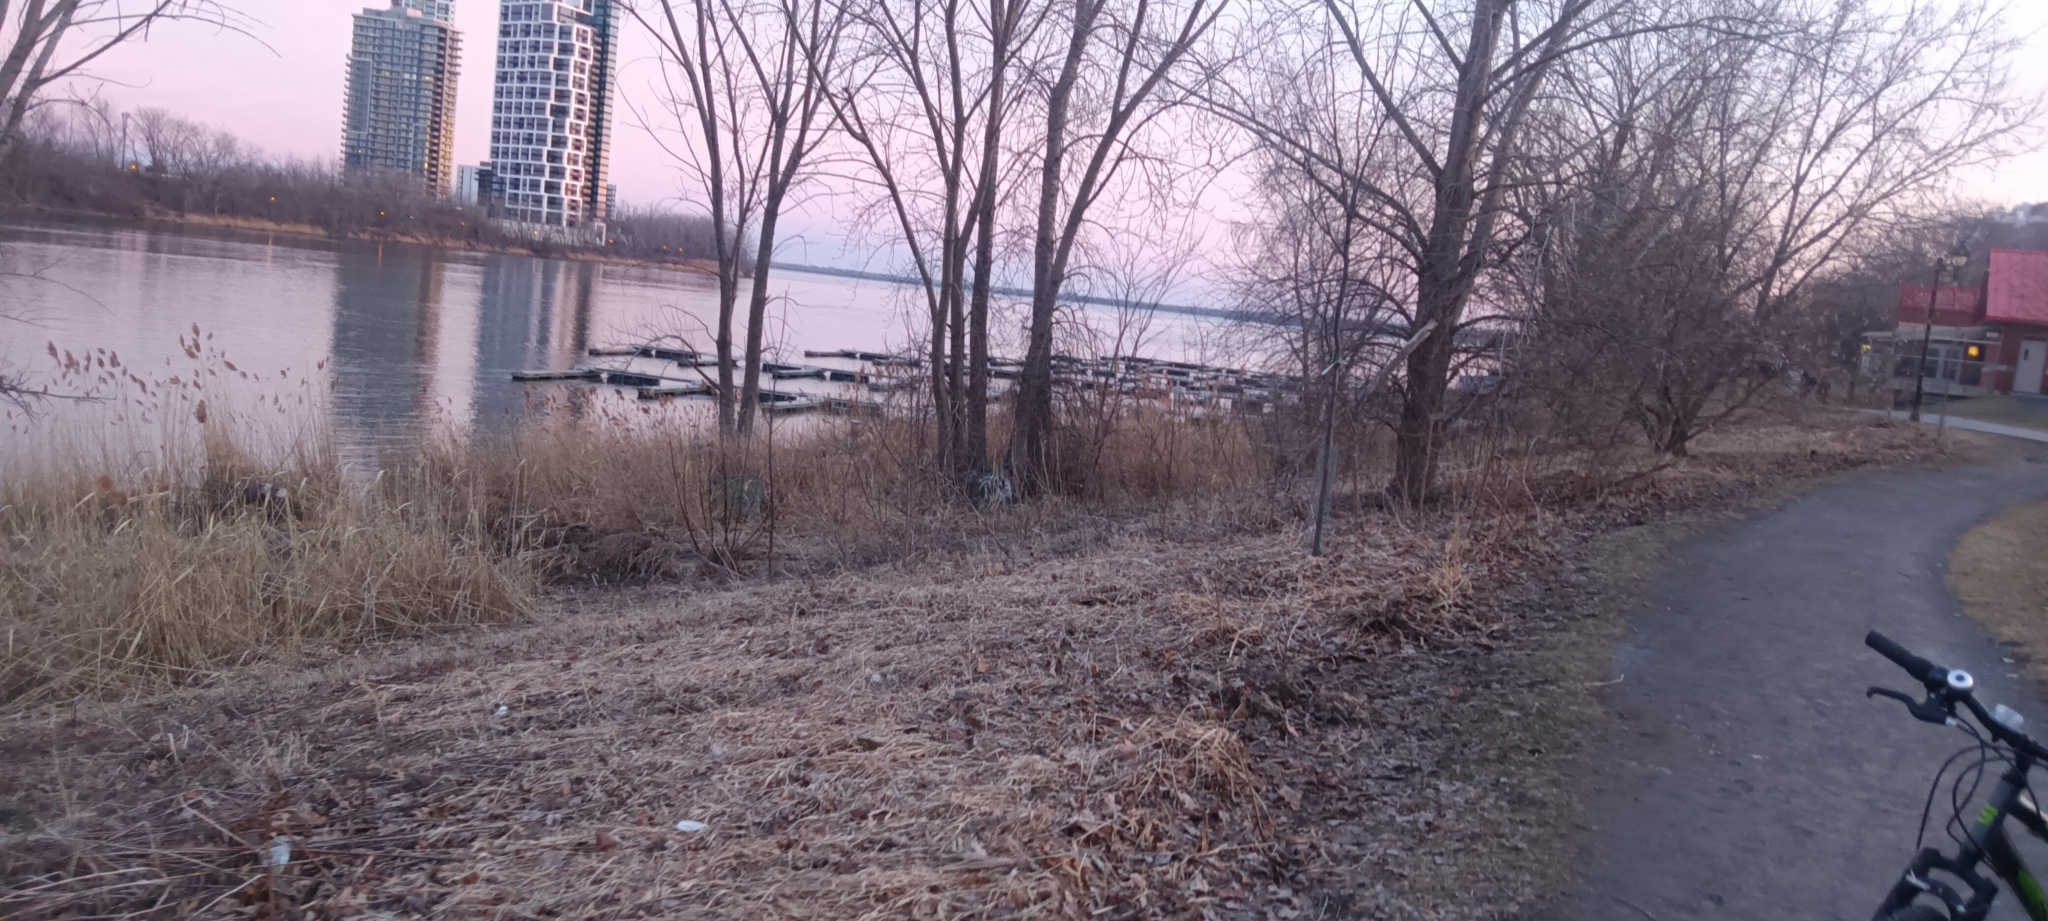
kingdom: Plantae
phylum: Tracheophyta
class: Liliopsida
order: Poales
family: Poaceae
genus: Phragmites
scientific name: Phragmites australis
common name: Common reed
